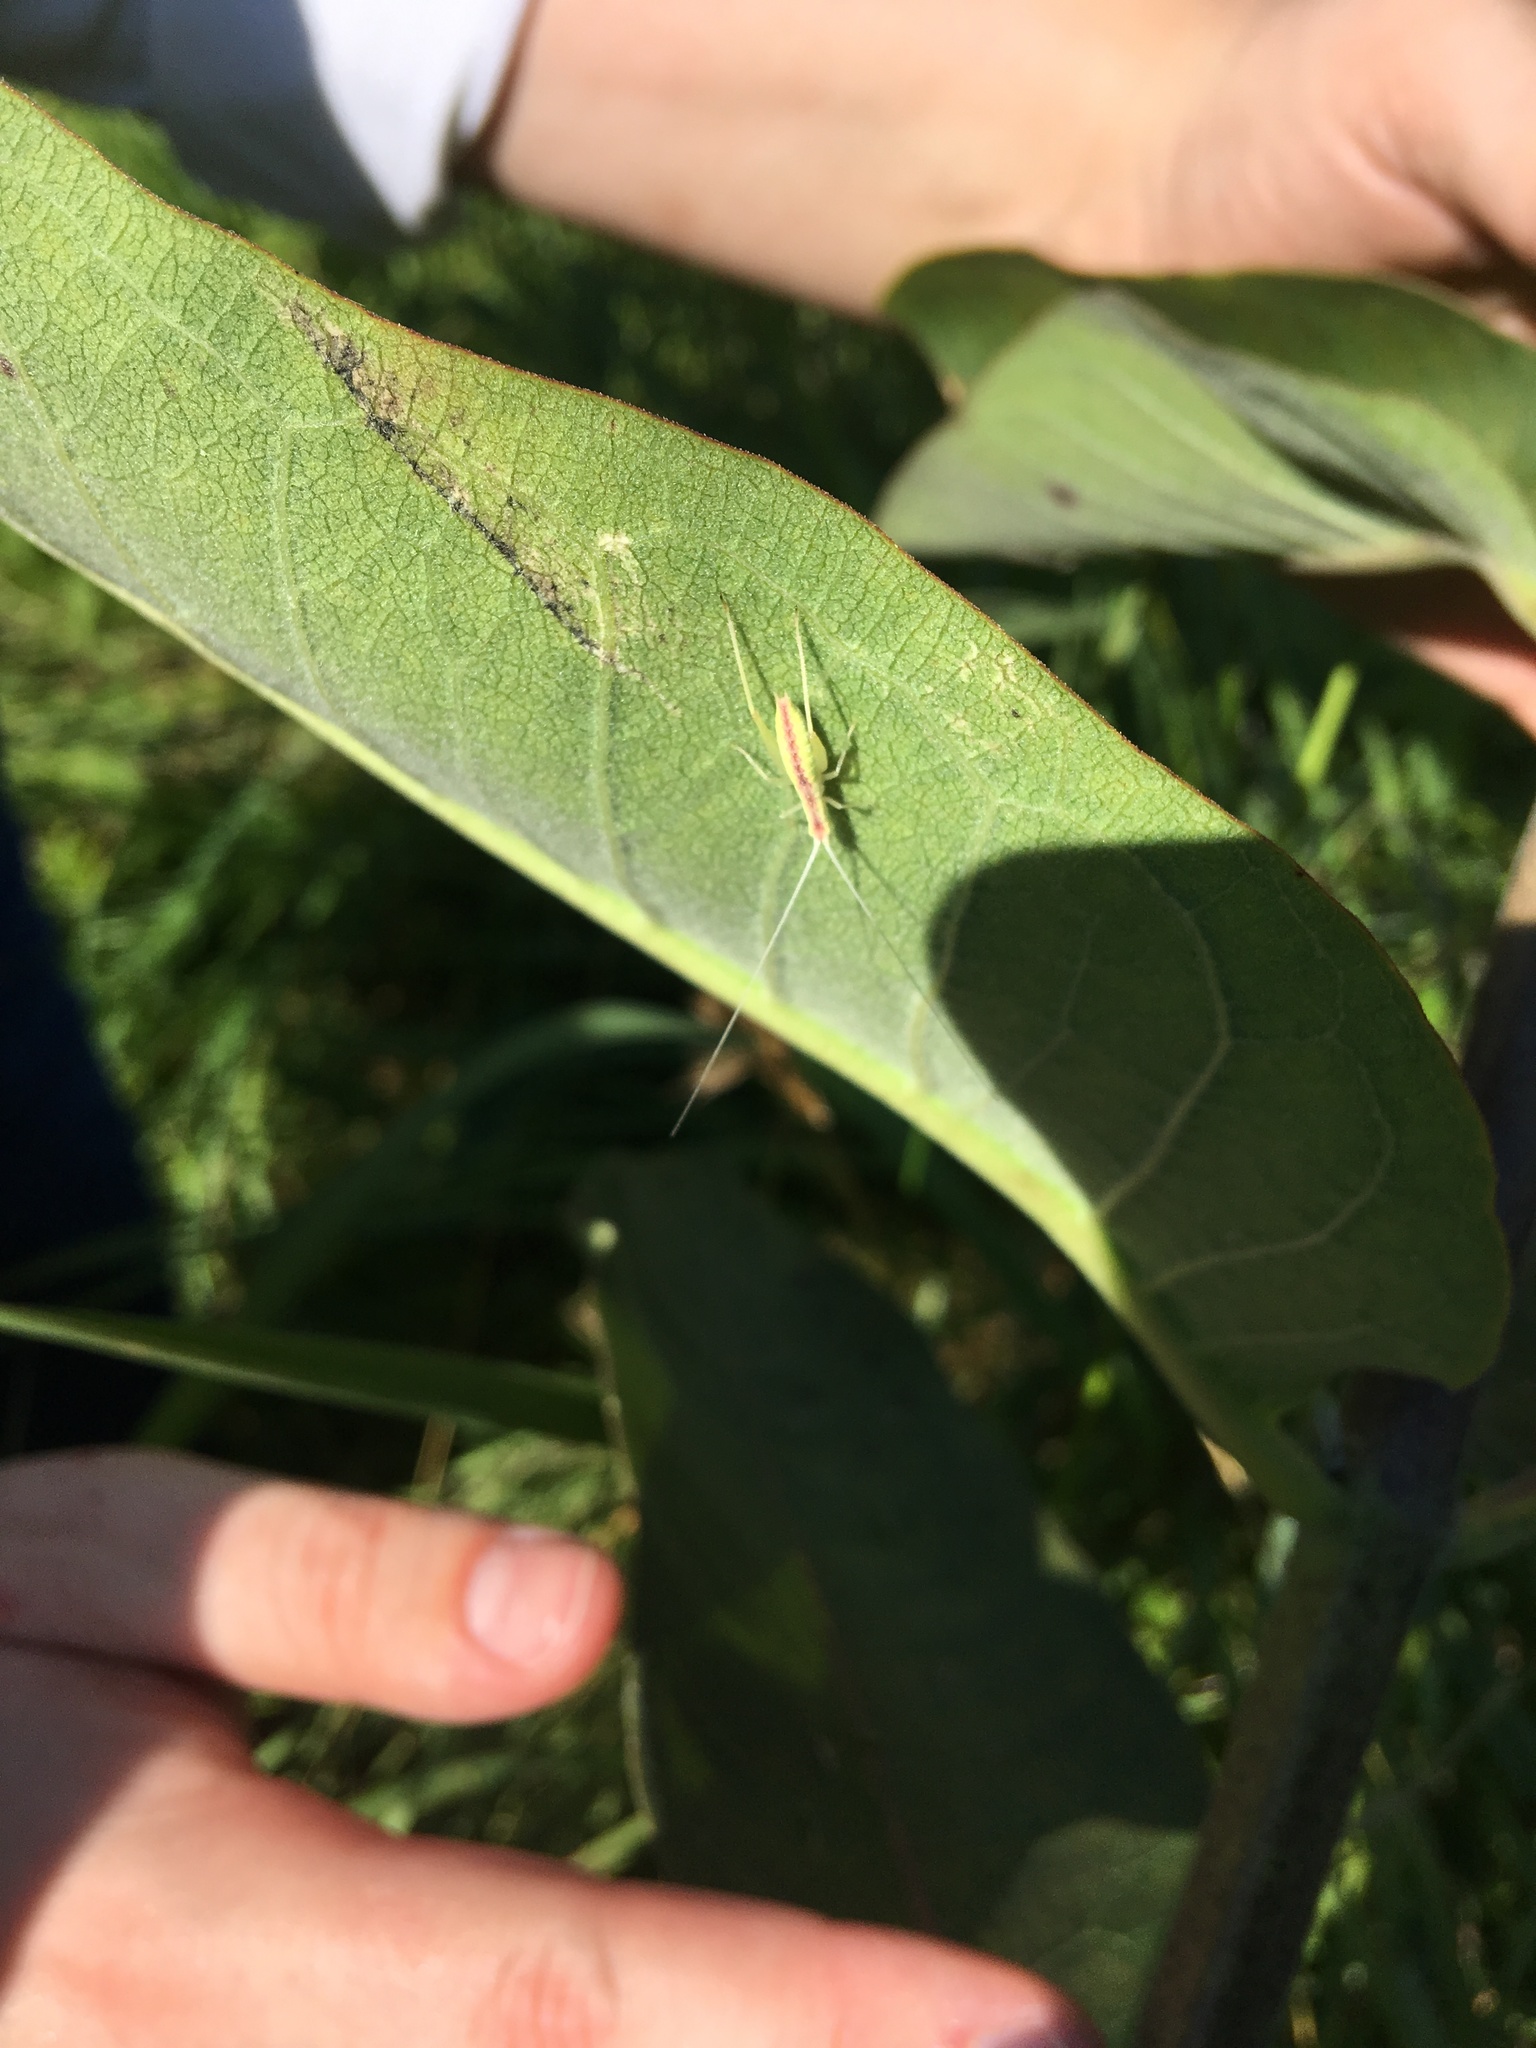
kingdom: Animalia
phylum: Arthropoda
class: Insecta
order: Orthoptera
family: Gryllidae
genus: Oecanthus
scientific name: Oecanthus latipennis
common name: Broad-winged tree cricket
